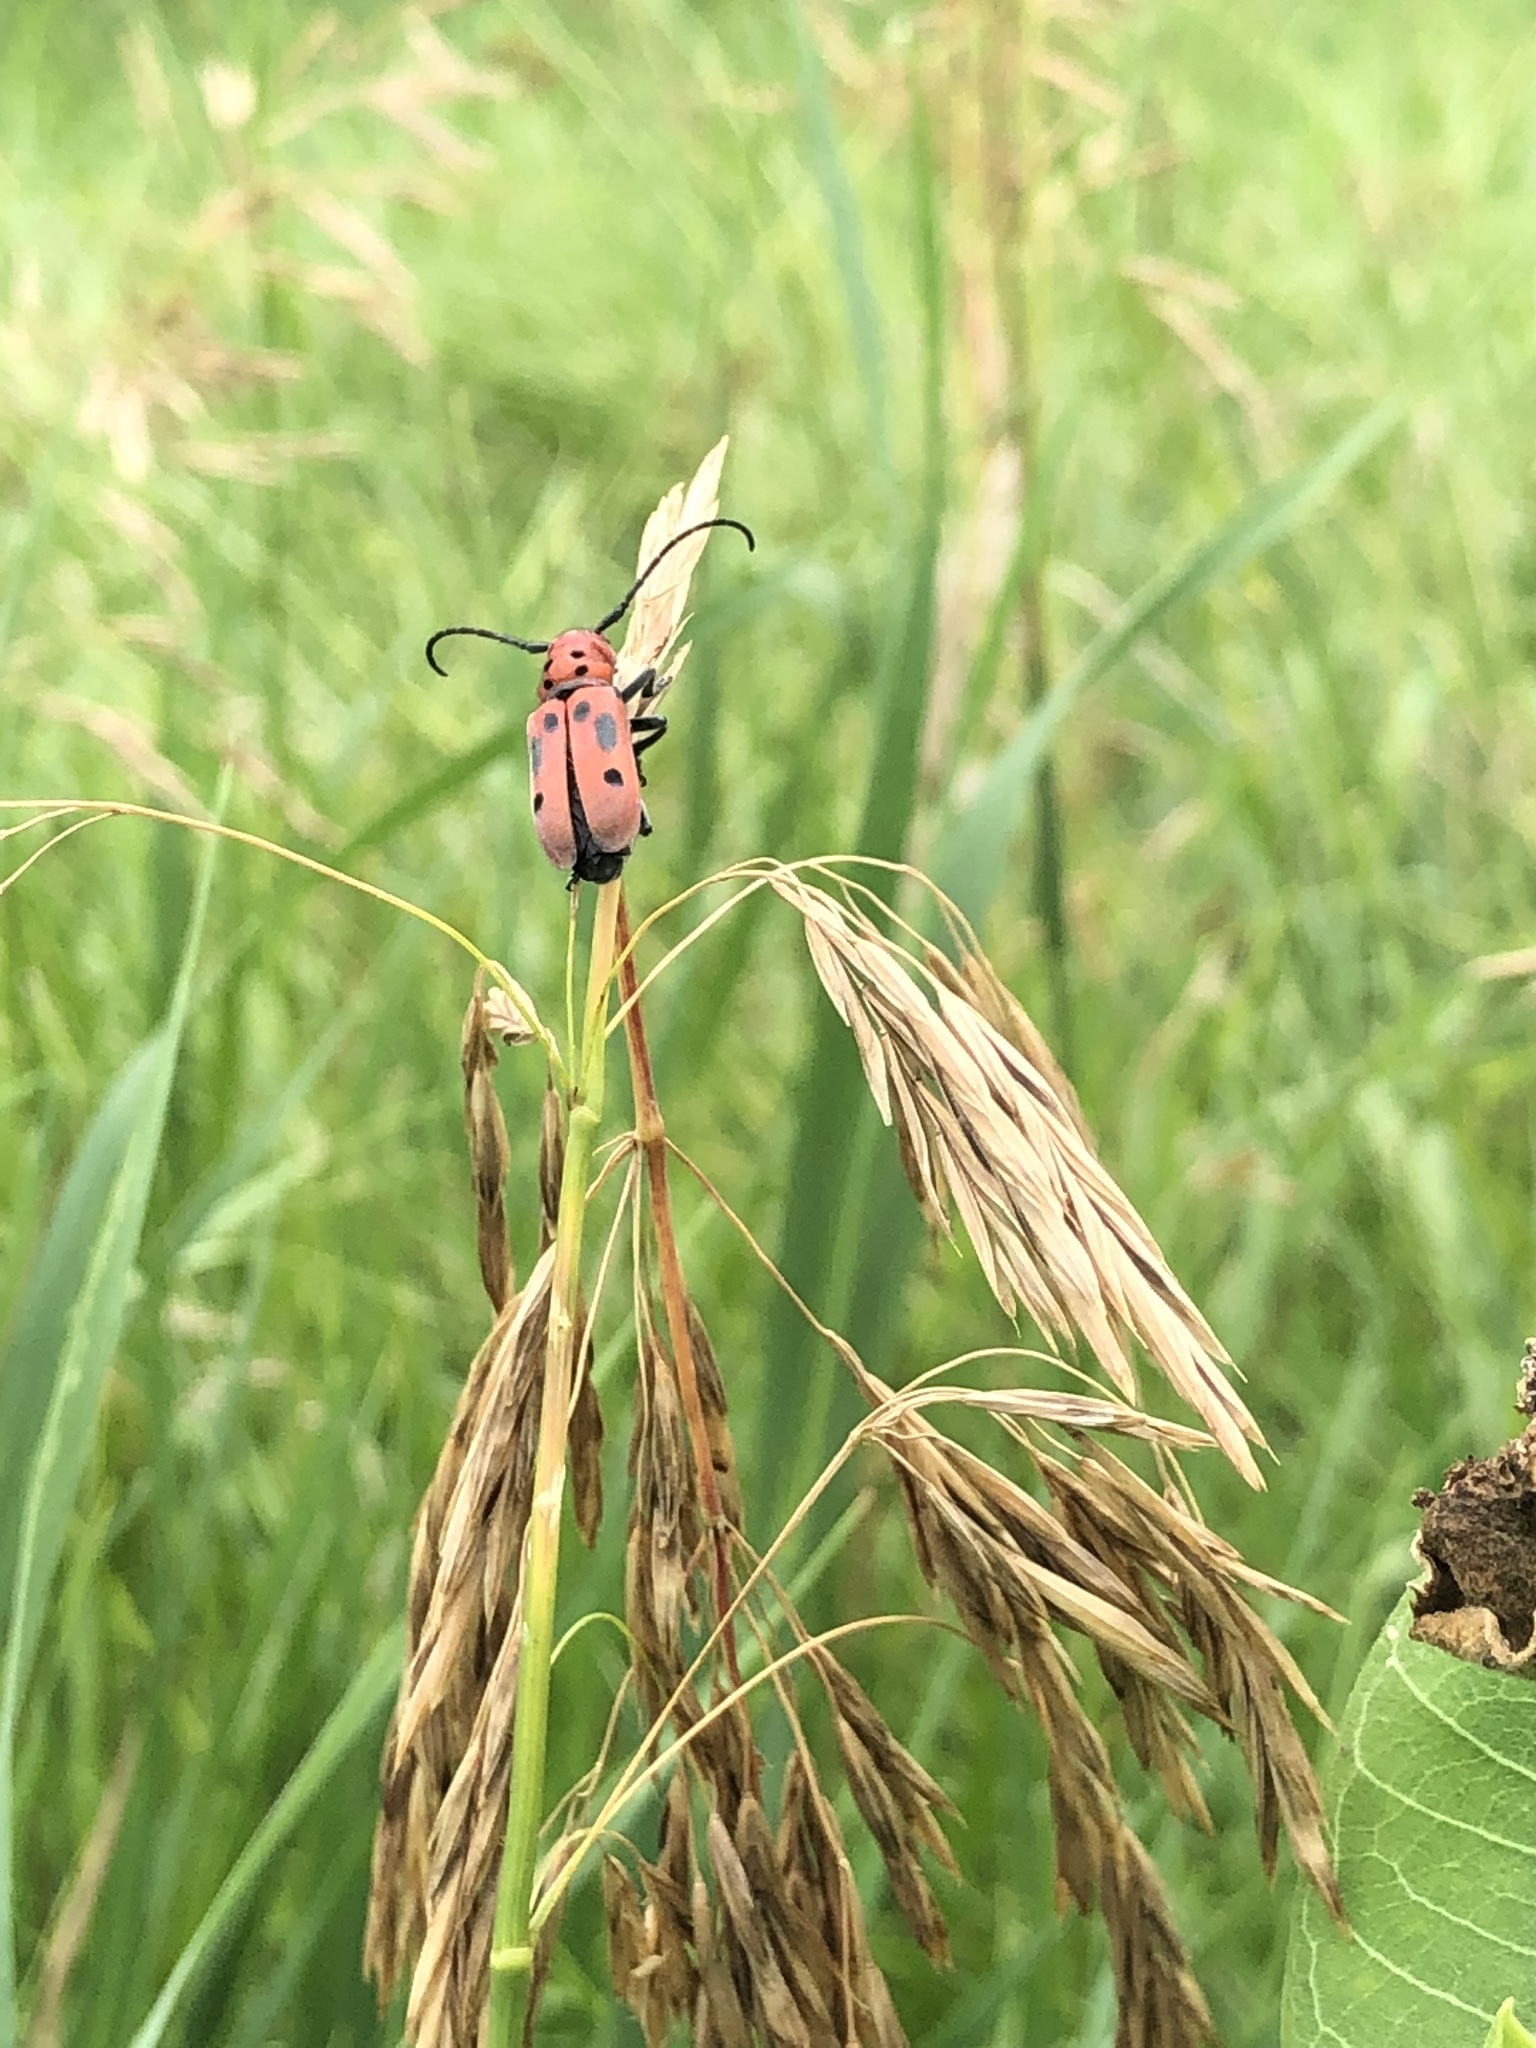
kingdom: Animalia
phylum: Arthropoda
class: Insecta
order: Coleoptera
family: Cerambycidae
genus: Tetraopes
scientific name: Tetraopes tetrophthalmus
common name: Red milkweed beetle
